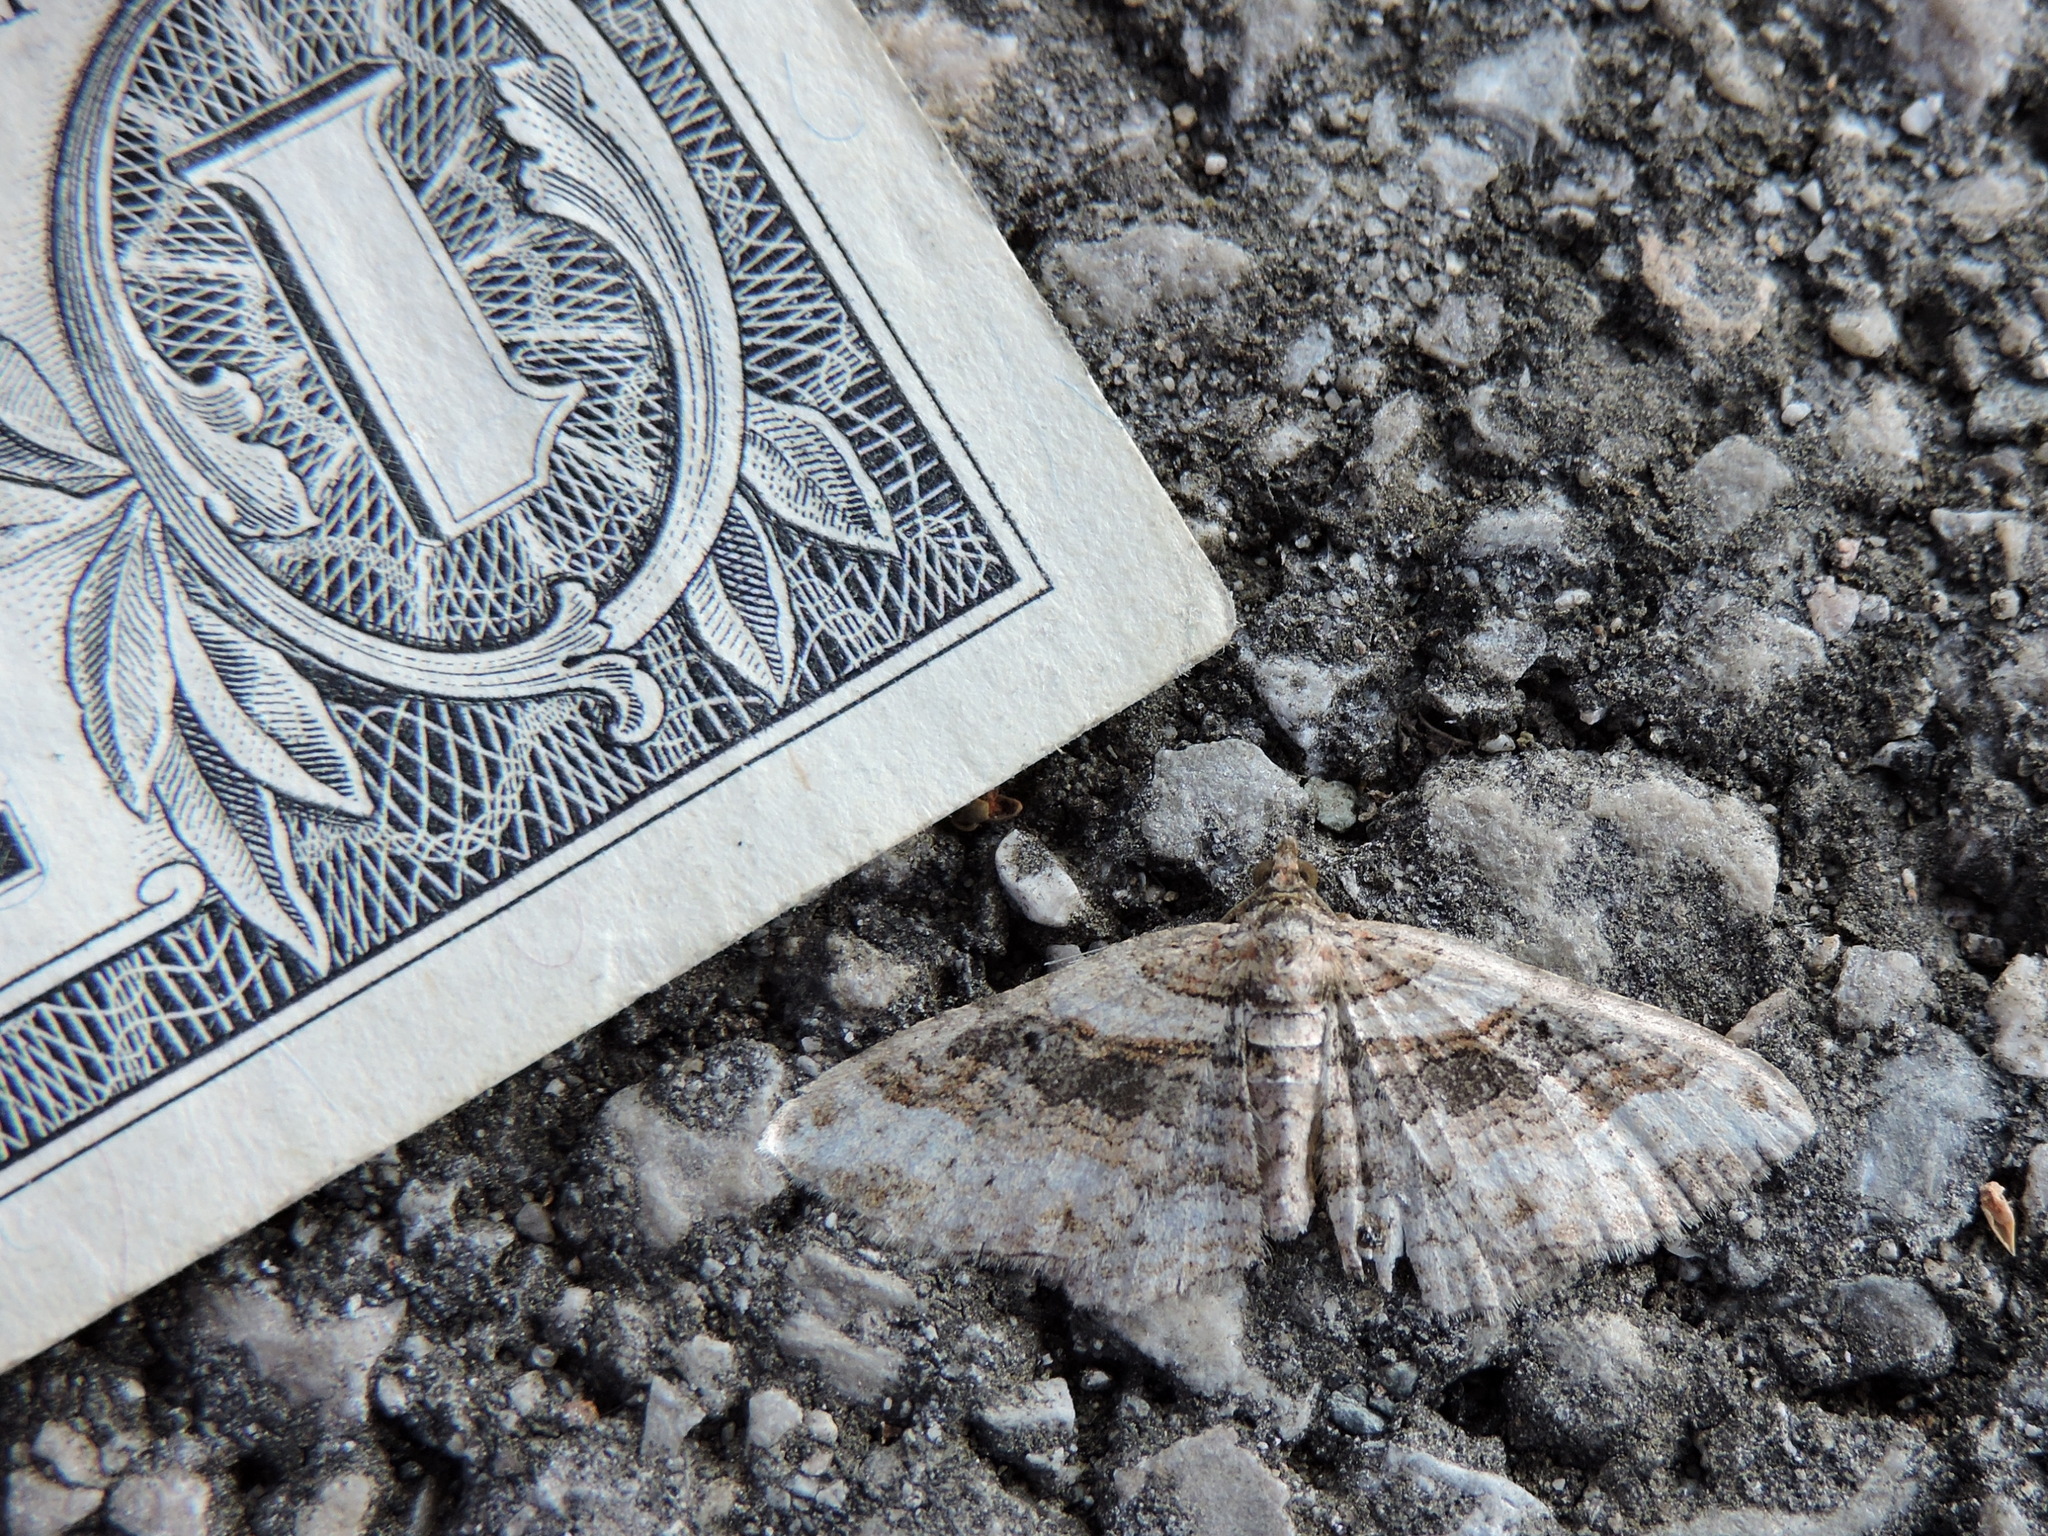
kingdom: Animalia
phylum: Arthropoda
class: Insecta
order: Lepidoptera
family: Geometridae
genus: Costaconvexa
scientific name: Costaconvexa centrostrigaria
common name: Bent-line carpet
